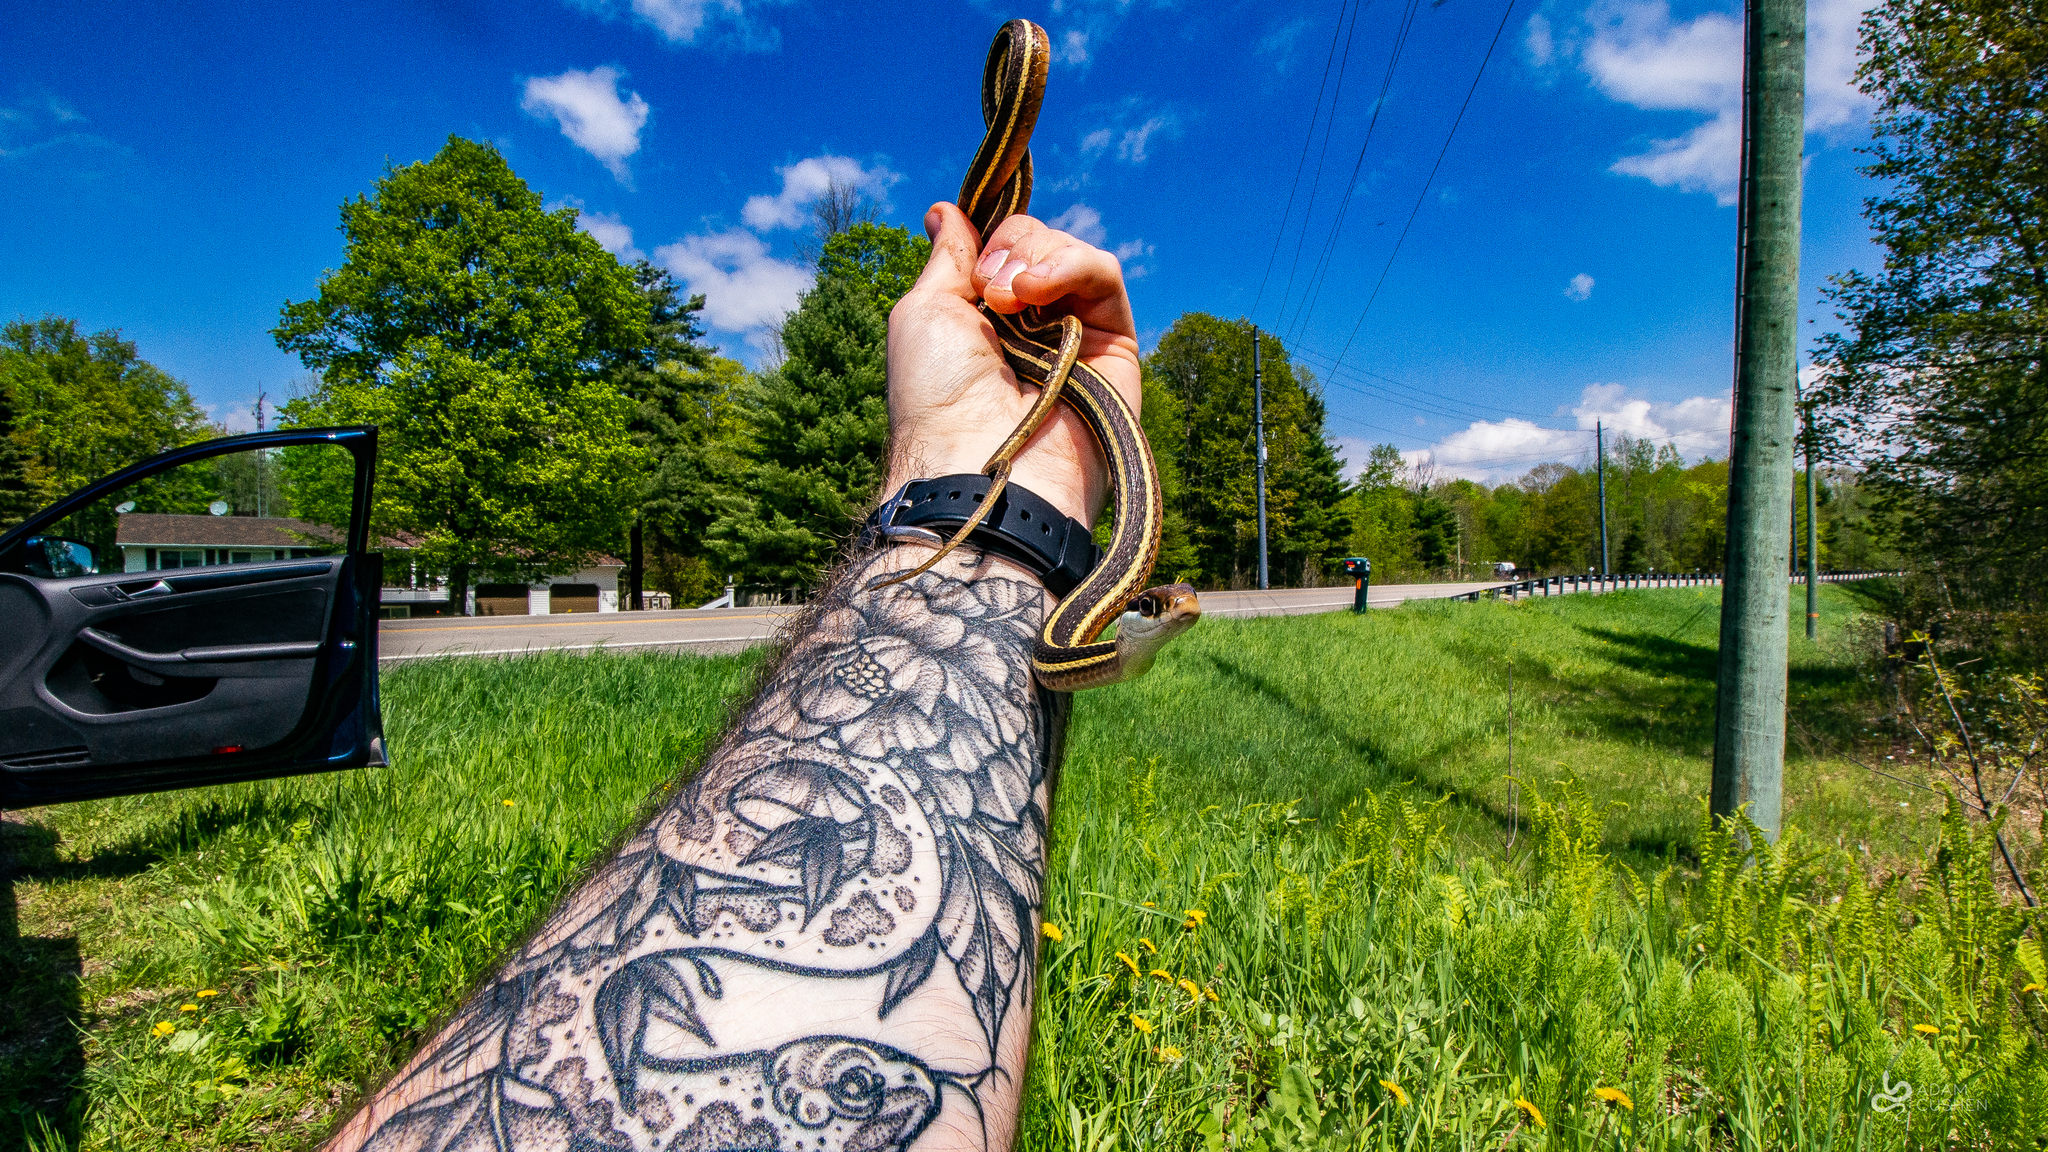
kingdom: Animalia
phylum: Chordata
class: Squamata
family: Colubridae
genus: Thamnophis
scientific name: Thamnophis saurita
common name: Eastern ribbonsnake
